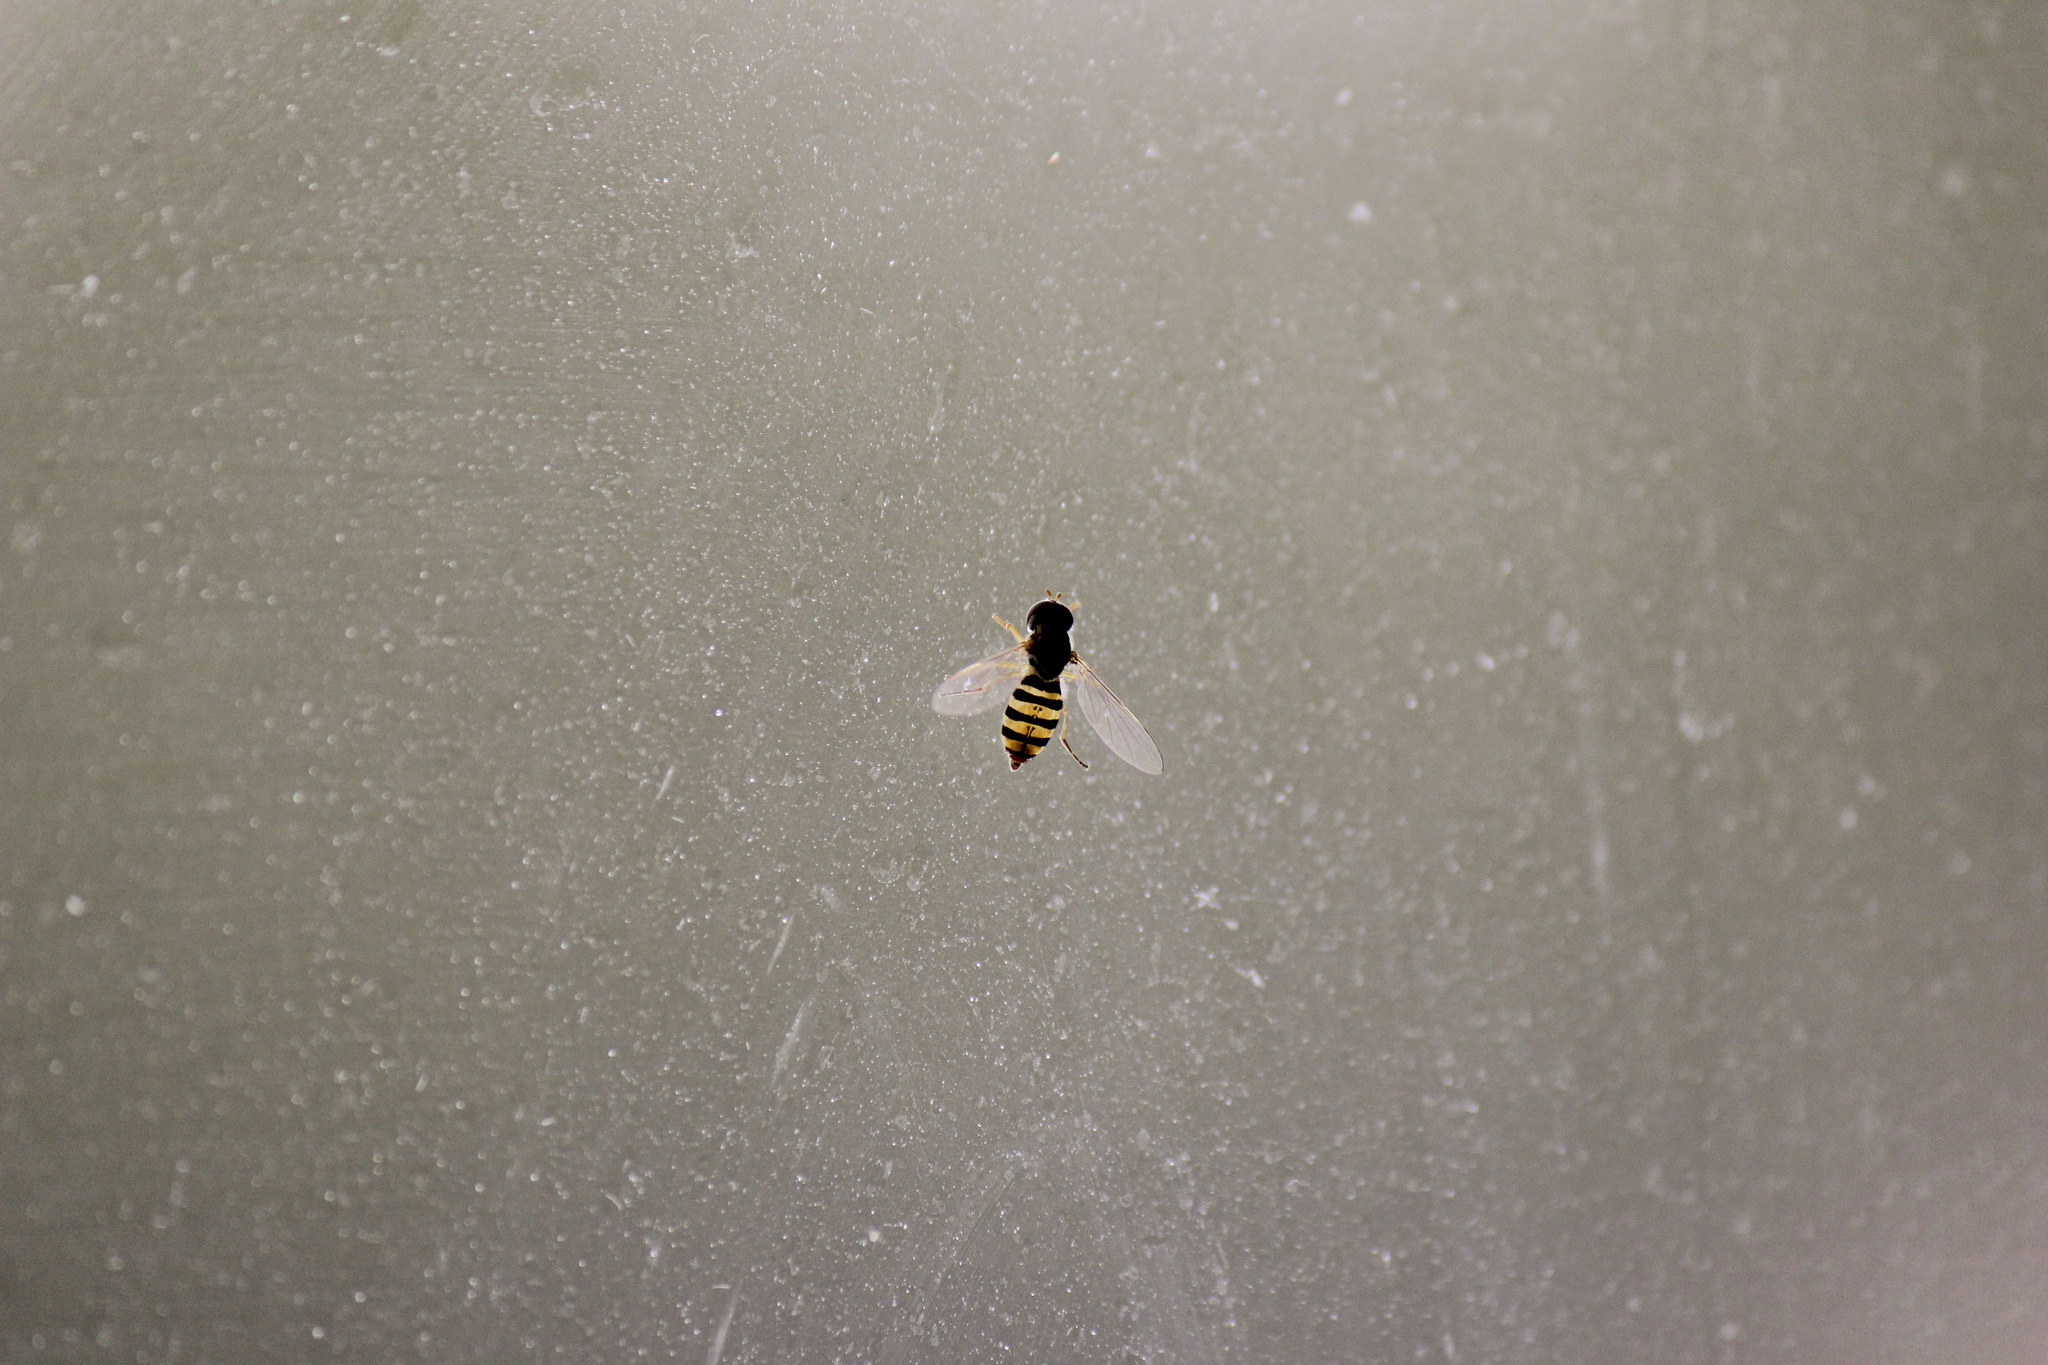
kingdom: Animalia
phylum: Arthropoda
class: Insecta
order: Diptera
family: Syrphidae
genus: Toxomerus
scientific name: Toxomerus
